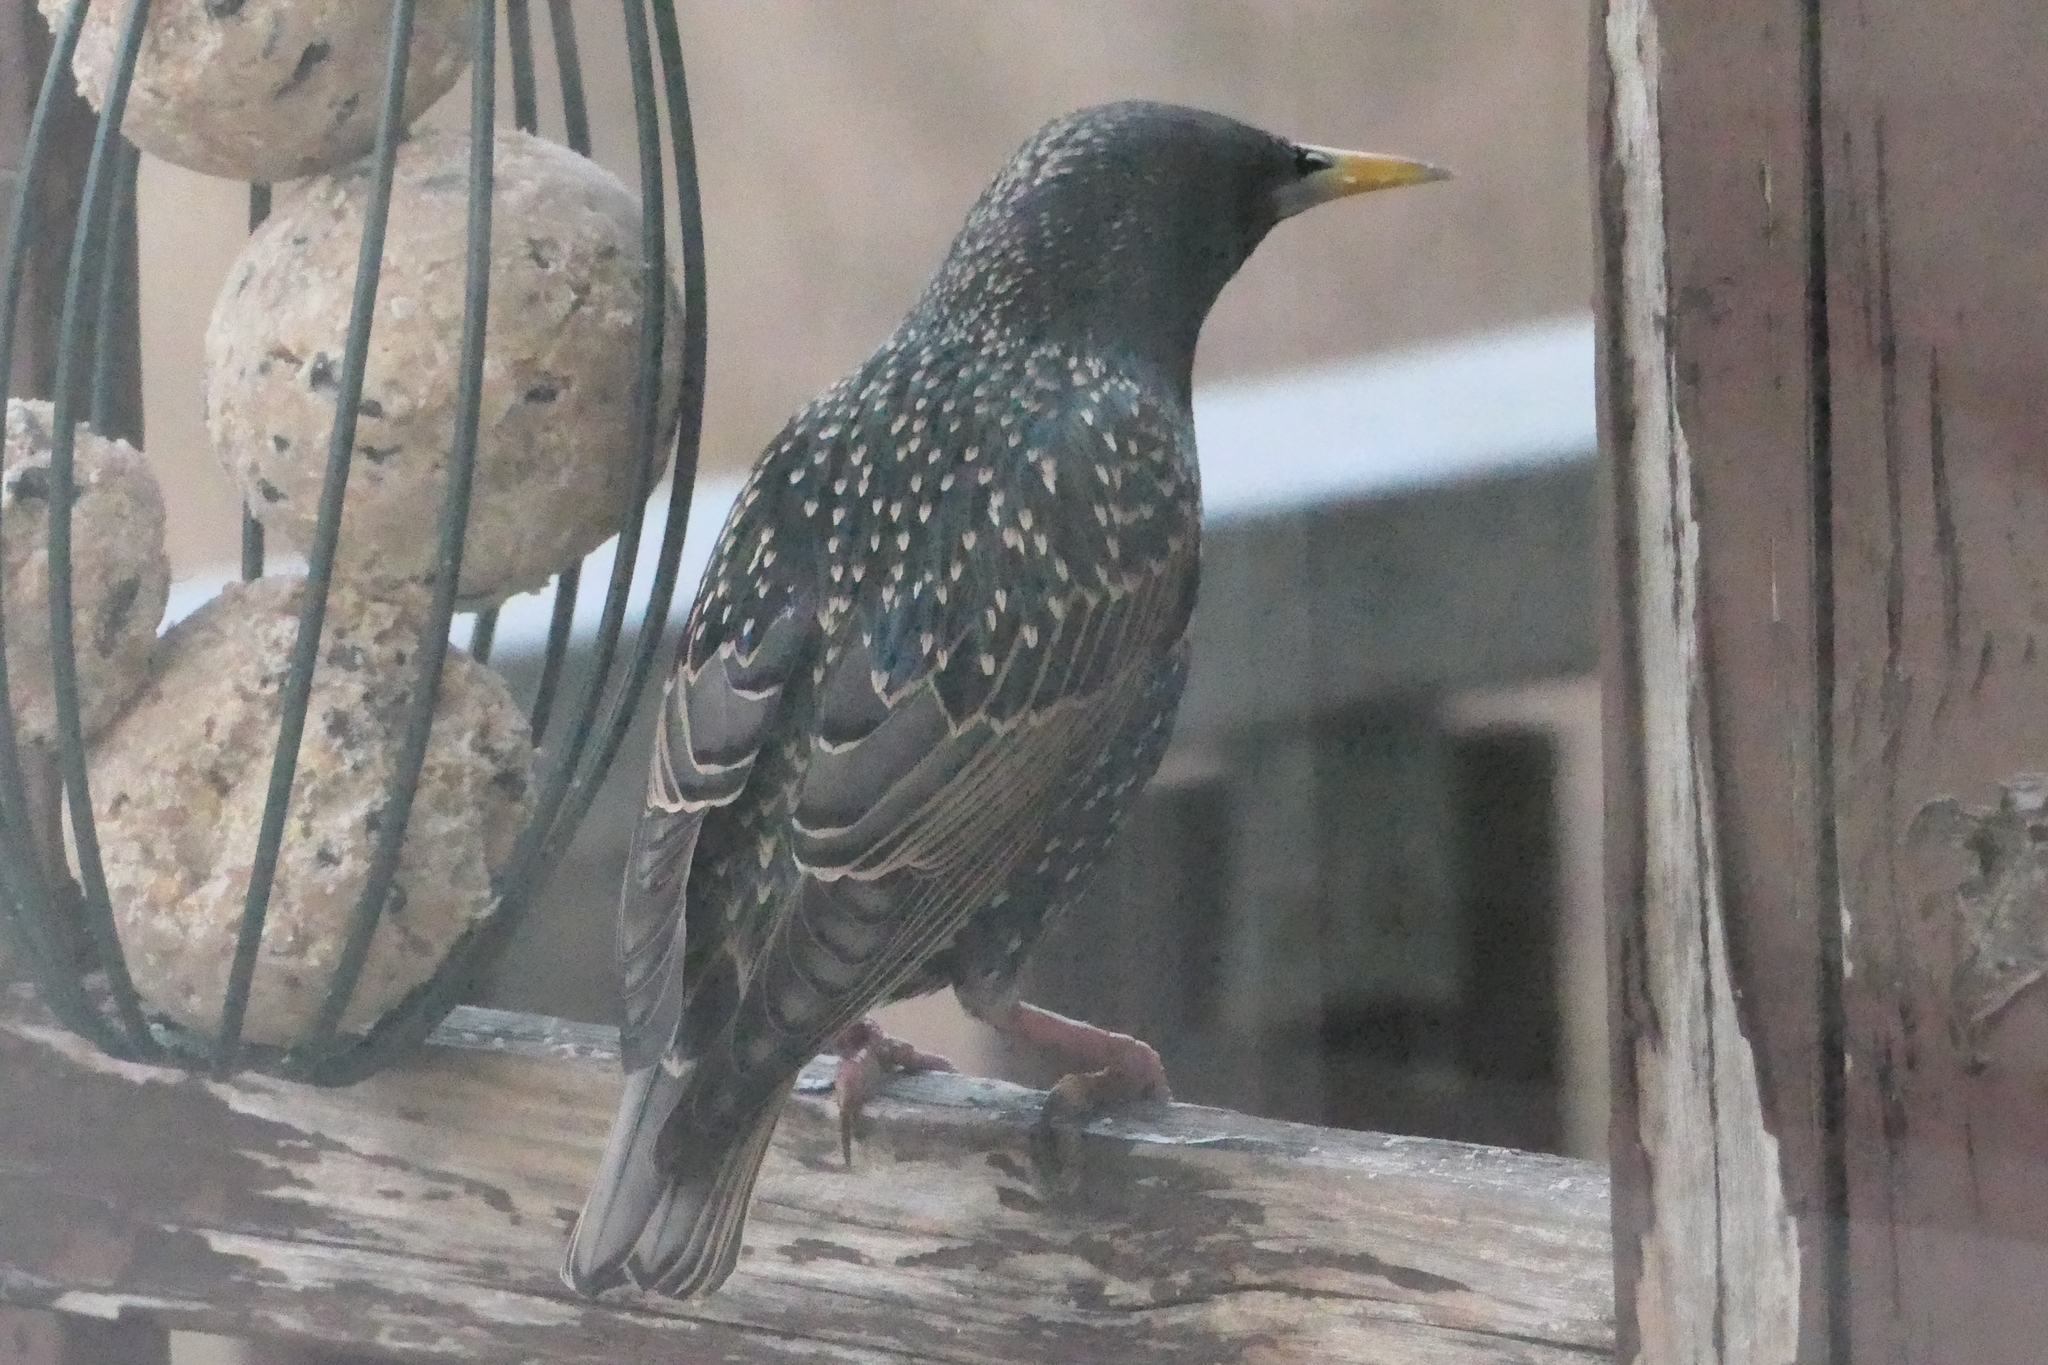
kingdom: Animalia
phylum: Chordata
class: Aves
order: Passeriformes
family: Sturnidae
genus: Sturnus
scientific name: Sturnus vulgaris
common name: Common starling
